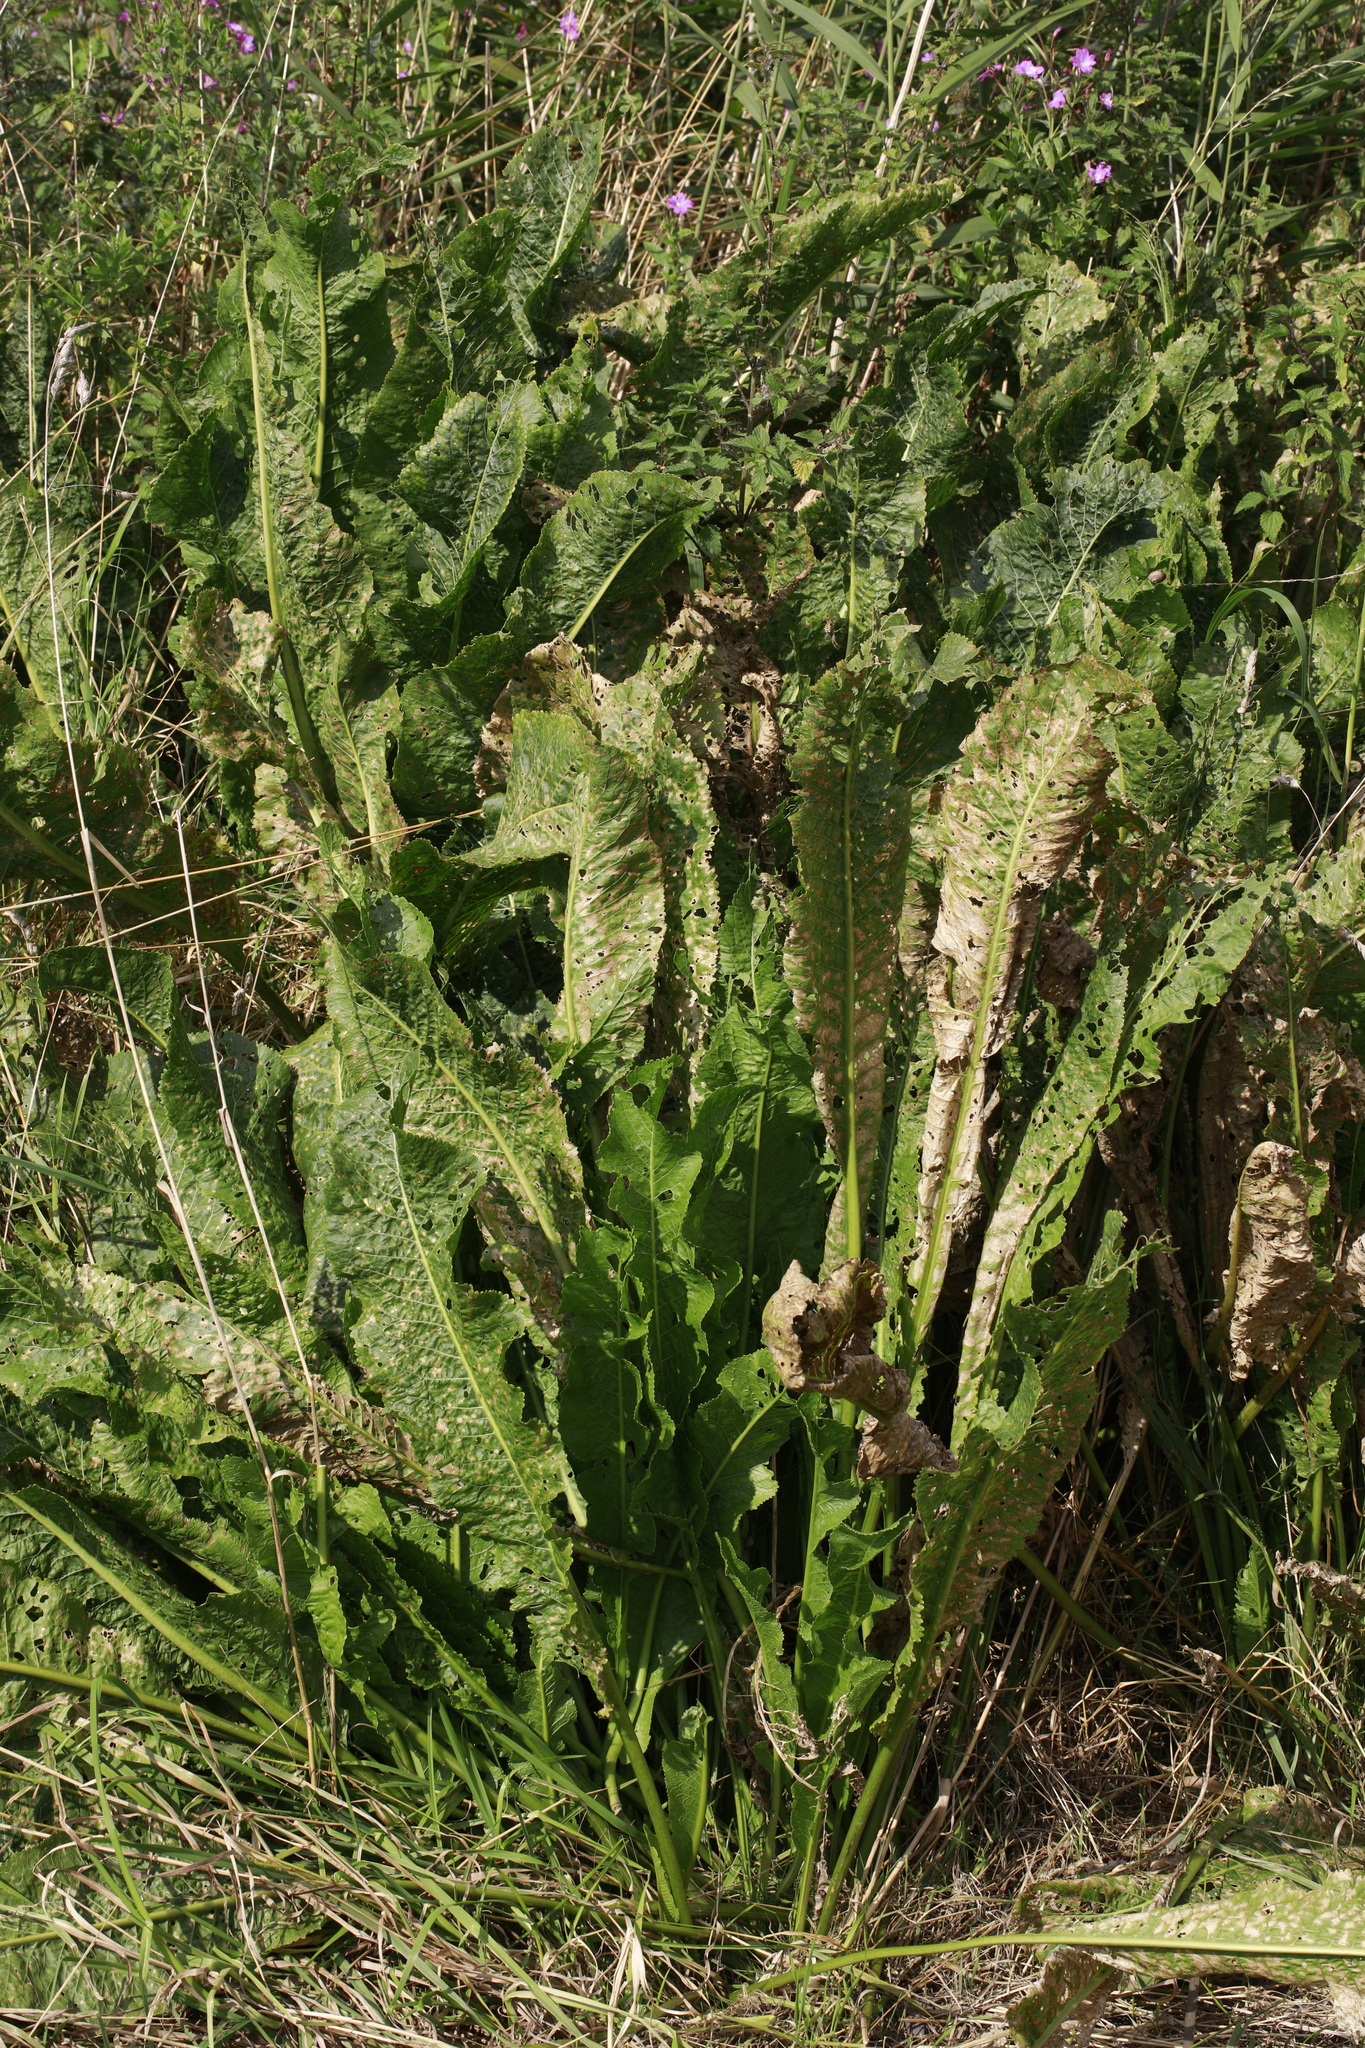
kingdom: Plantae
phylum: Tracheophyta
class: Magnoliopsida
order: Brassicales
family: Brassicaceae
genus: Armoracia
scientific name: Armoracia rusticana
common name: Horseradish
